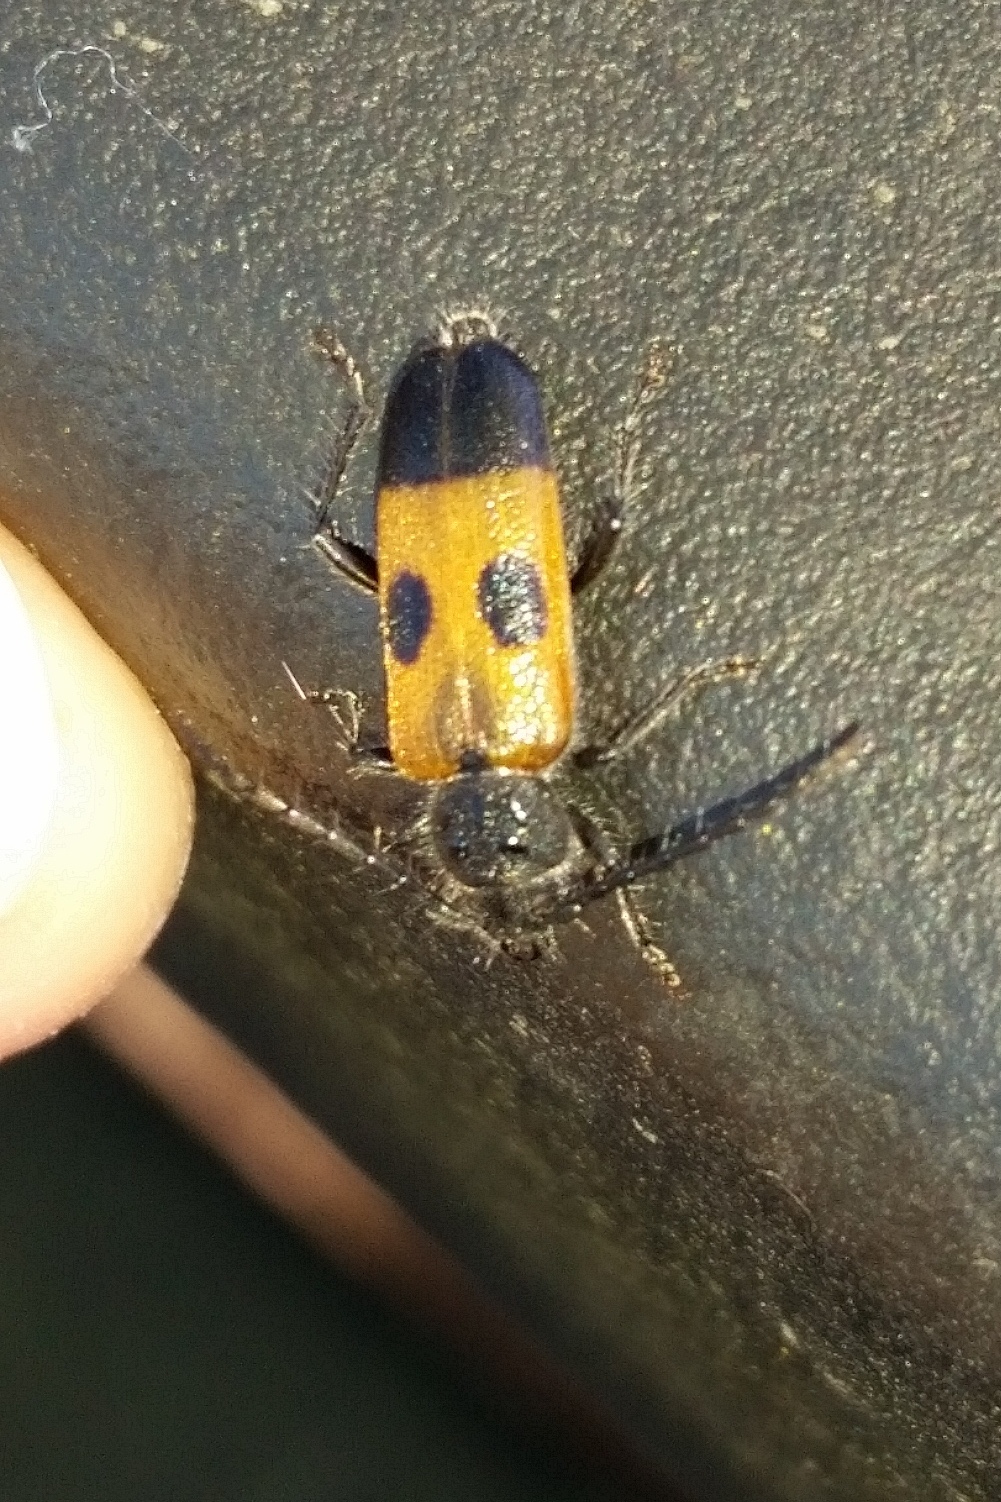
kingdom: Animalia
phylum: Arthropoda
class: Insecta
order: Coleoptera
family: Cerambycidae
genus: Semanotus
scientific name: Semanotus ligneus
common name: Cedartree borer
